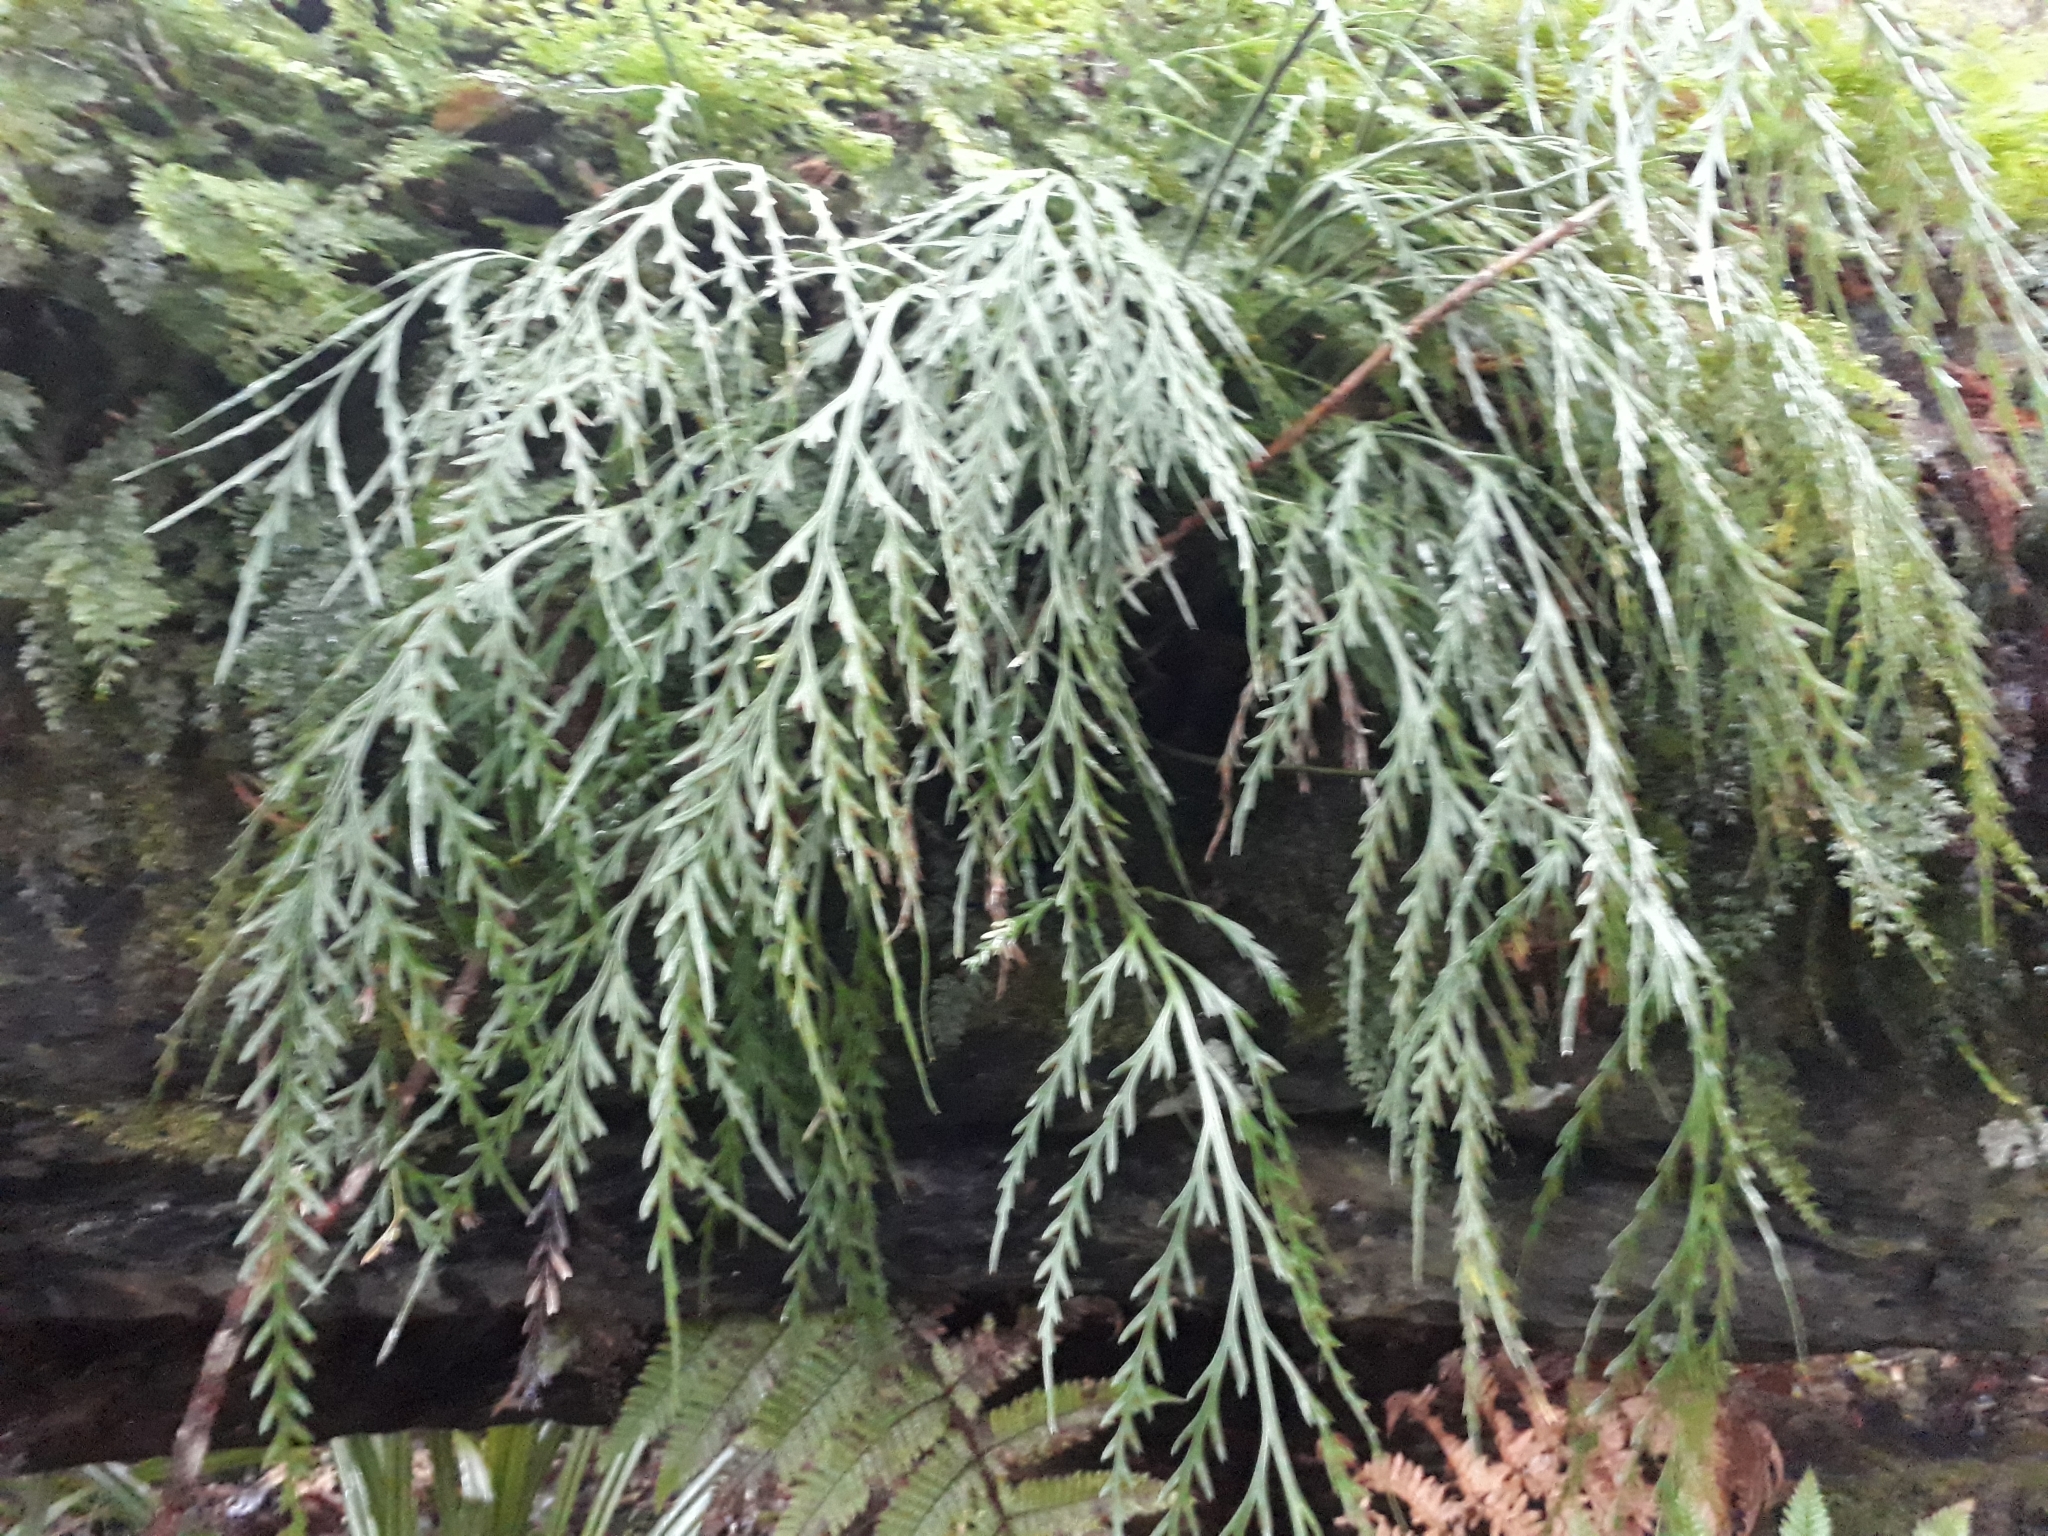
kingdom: Plantae
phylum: Tracheophyta
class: Polypodiopsida
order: Polypodiales
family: Aspleniaceae
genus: Asplenium
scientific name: Asplenium flaccidum
